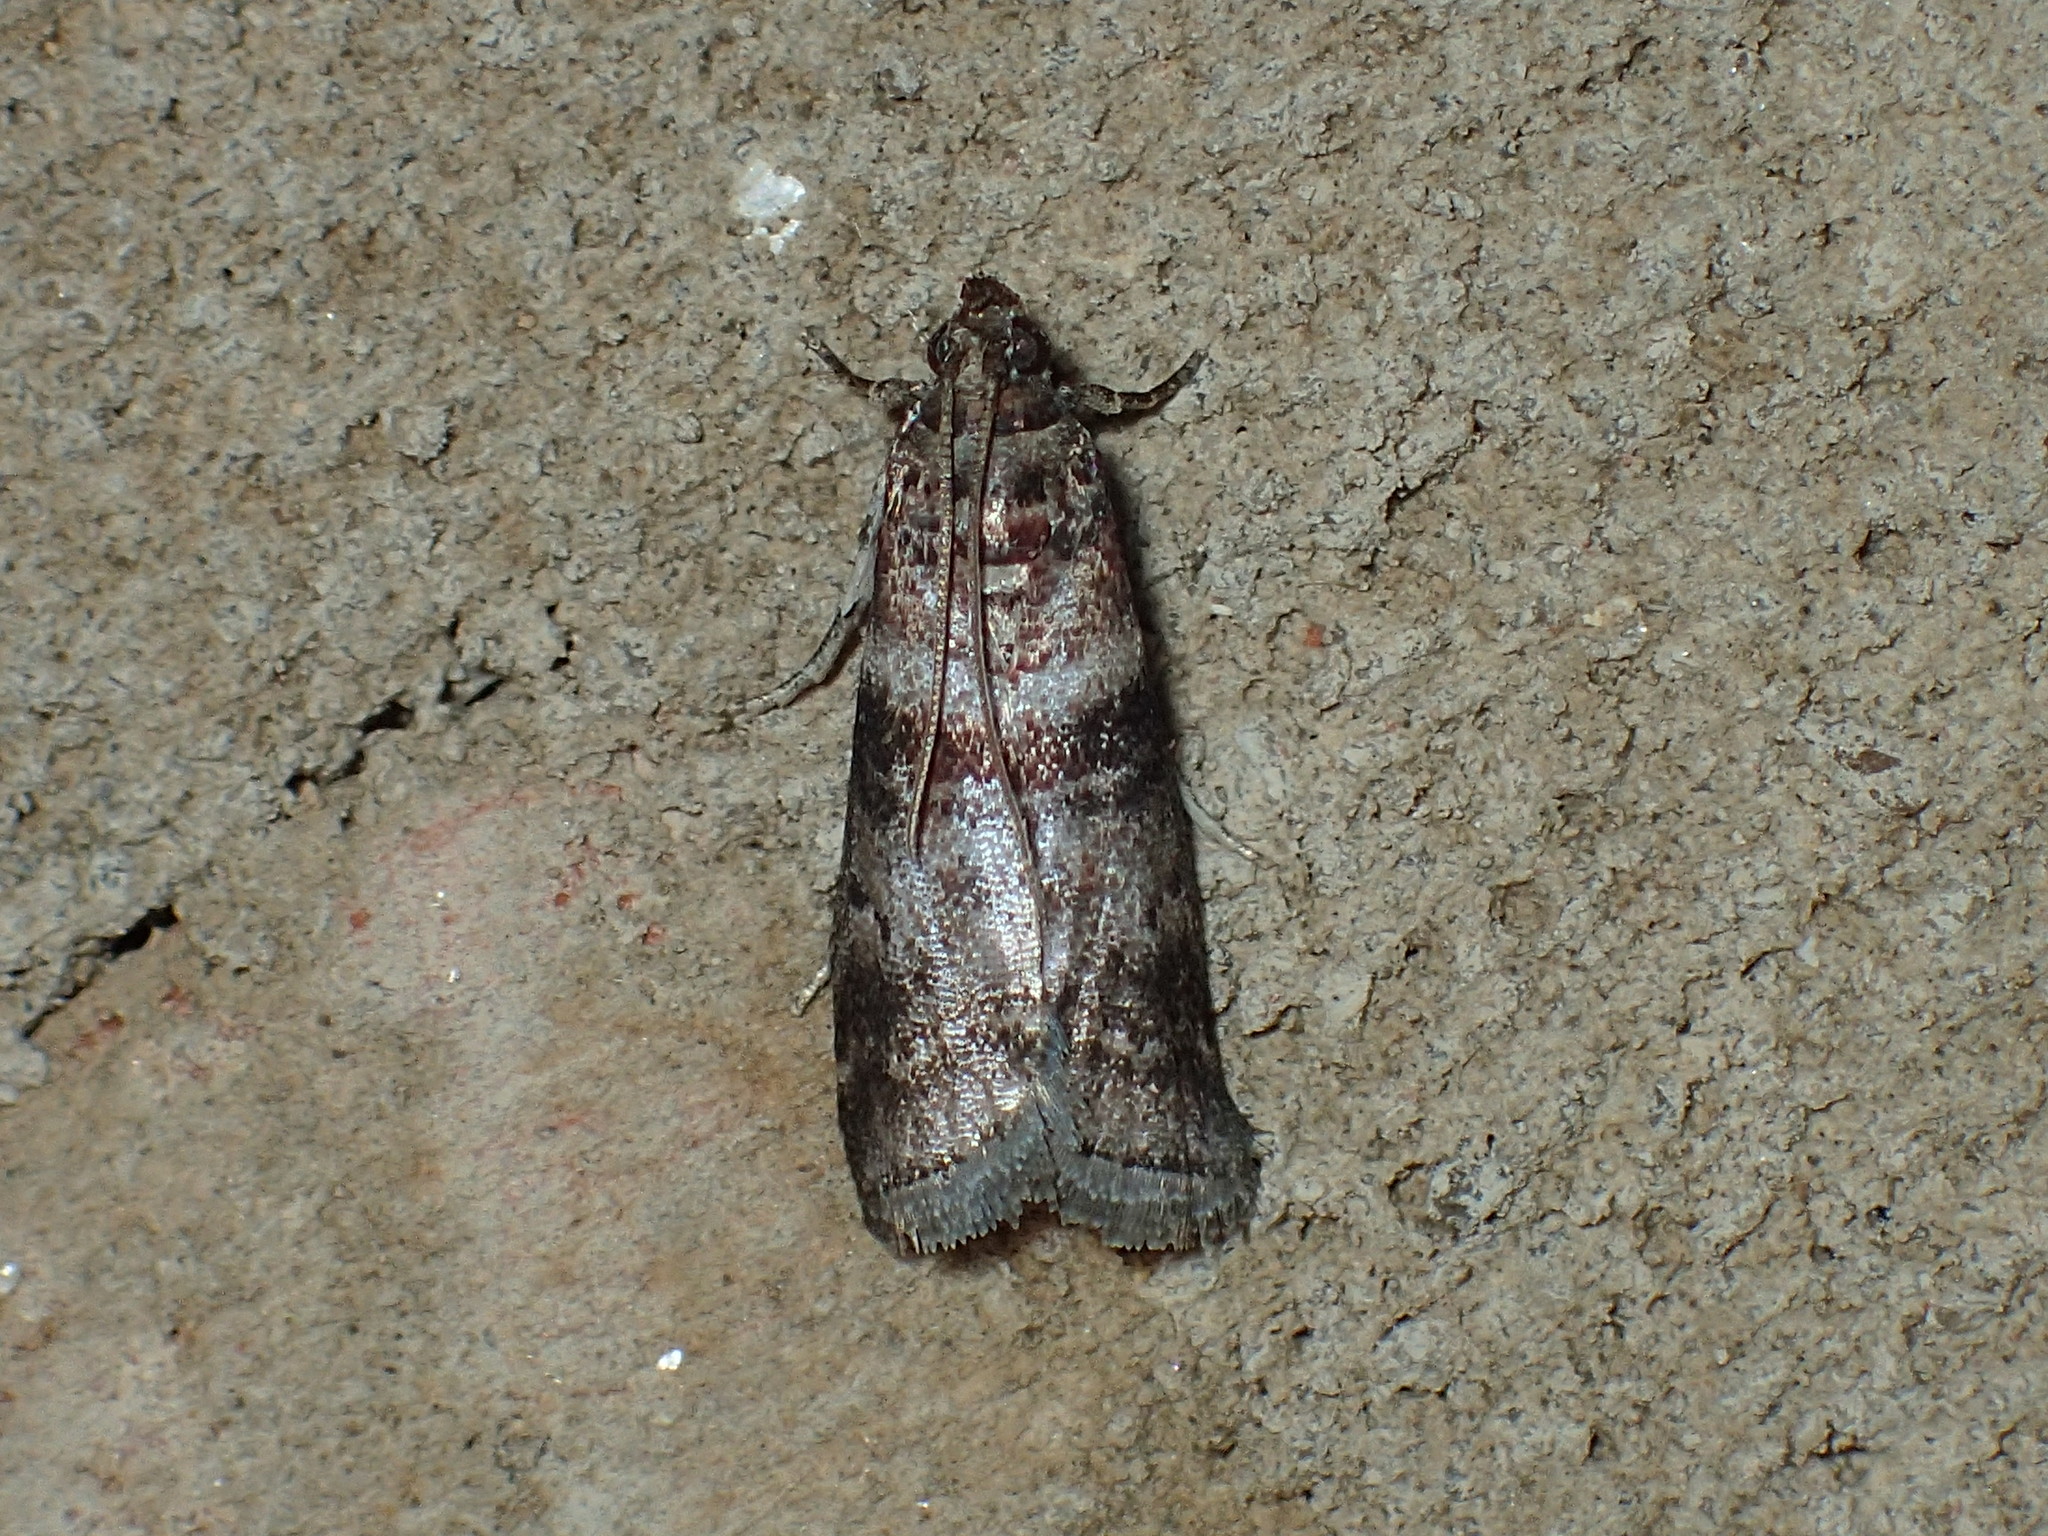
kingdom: Animalia
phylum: Arthropoda
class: Insecta
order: Lepidoptera
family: Pyralidae
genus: Sciota
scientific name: Sciota uvinella
